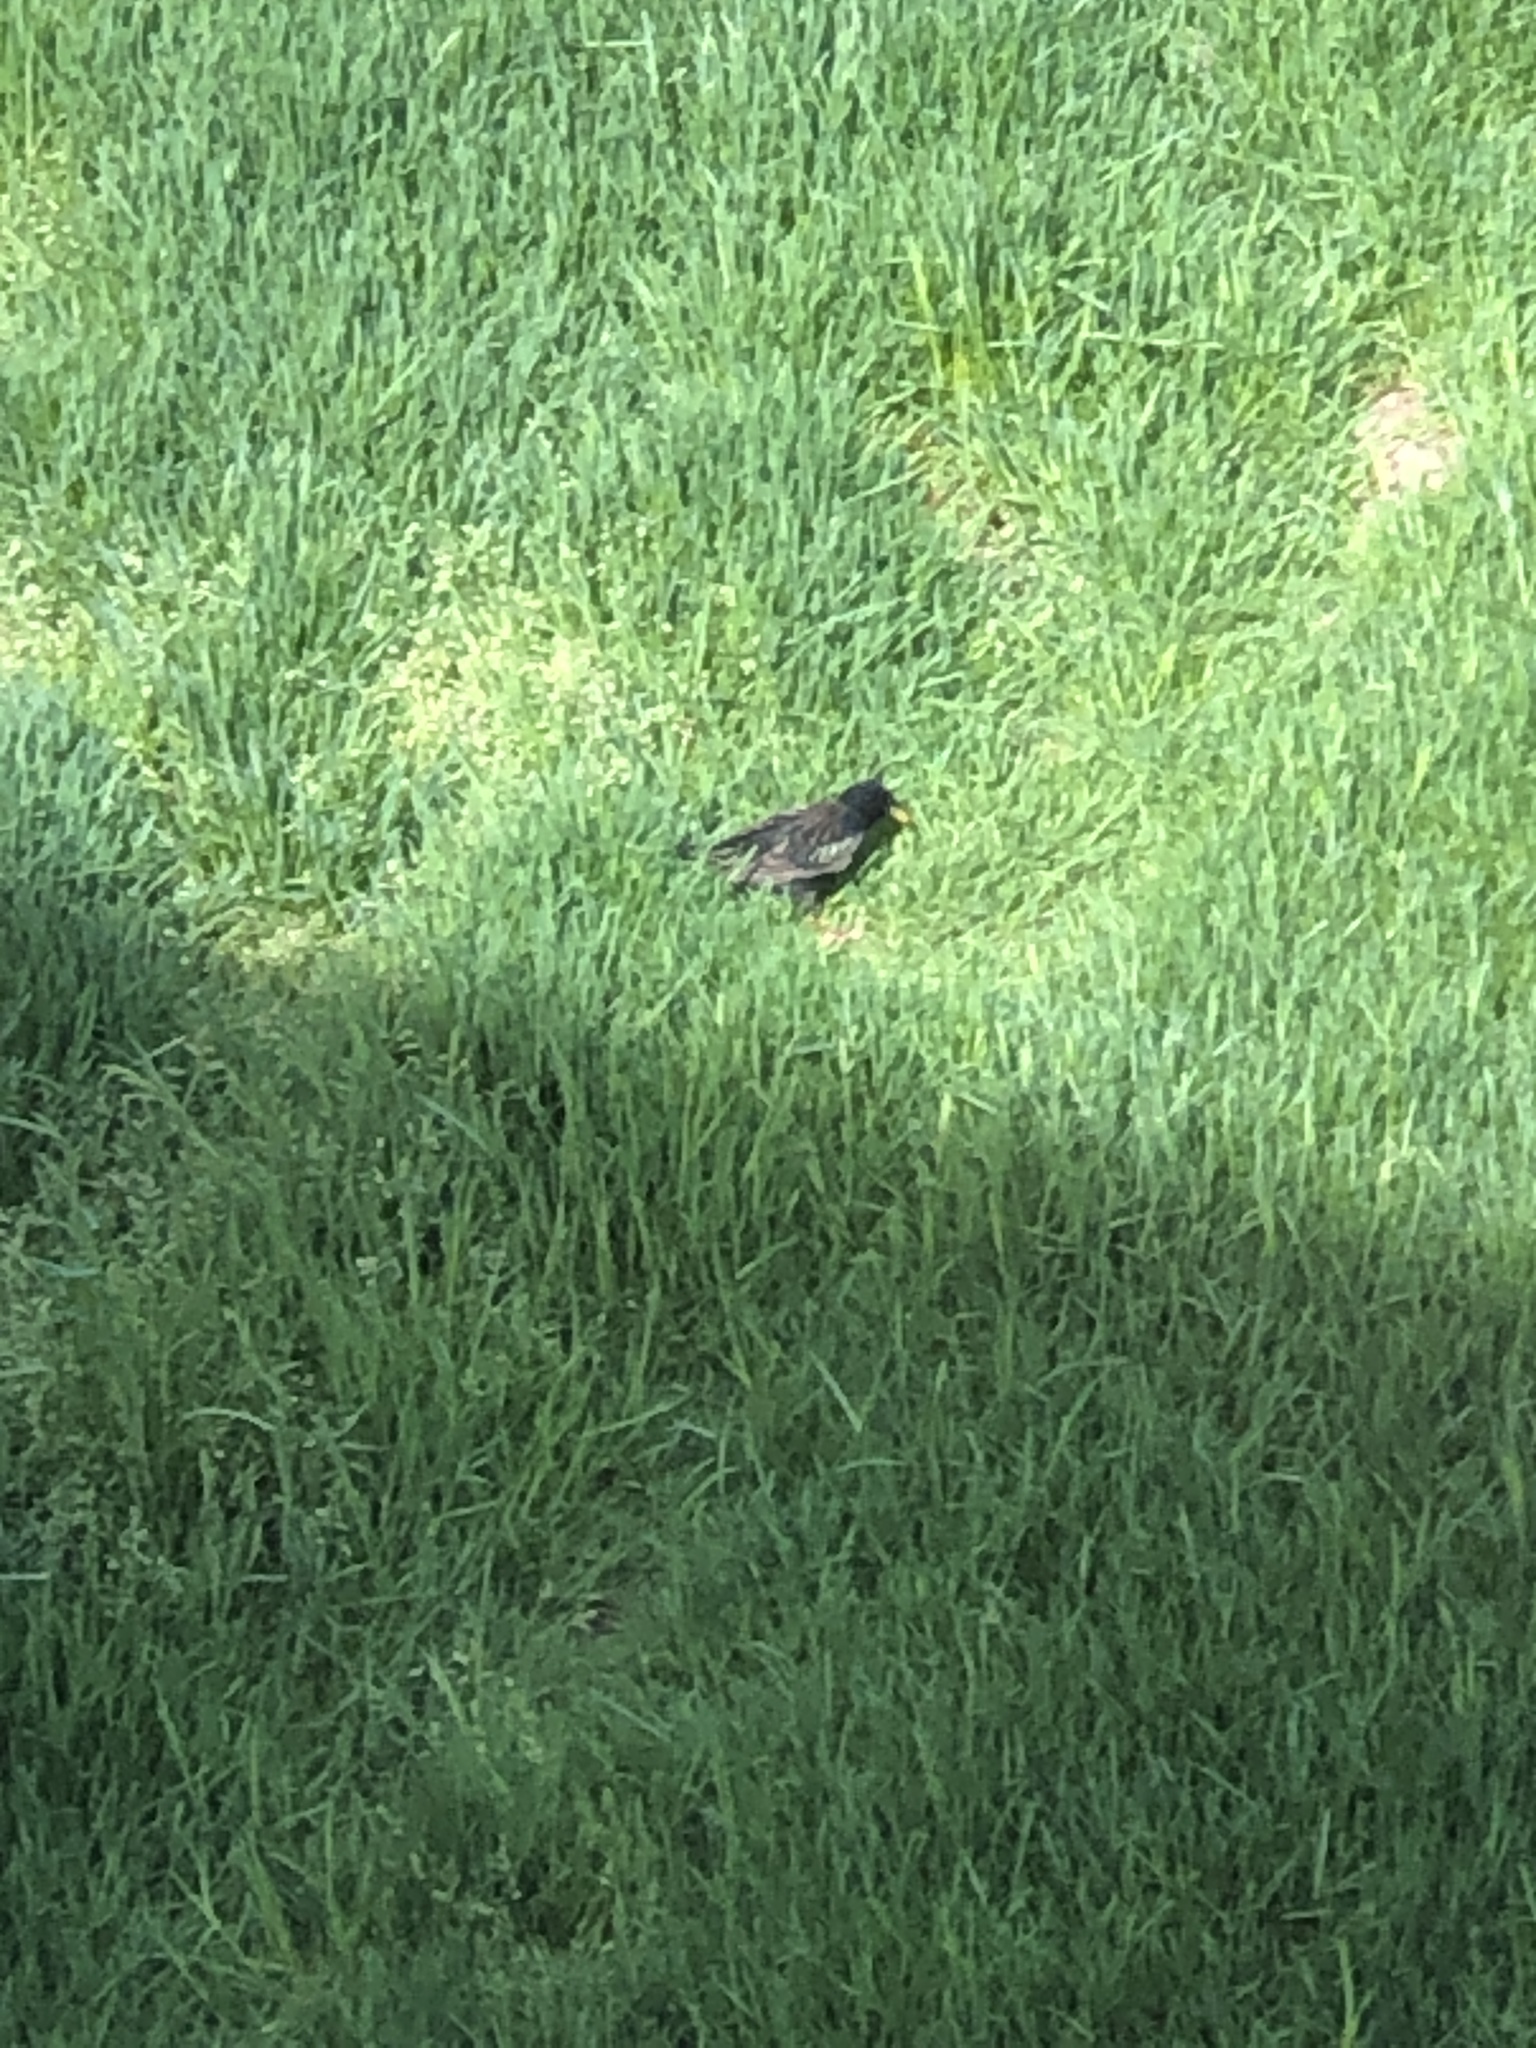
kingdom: Animalia
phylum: Chordata
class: Aves
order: Passeriformes
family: Sturnidae
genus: Sturnus
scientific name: Sturnus vulgaris
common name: Common starling
